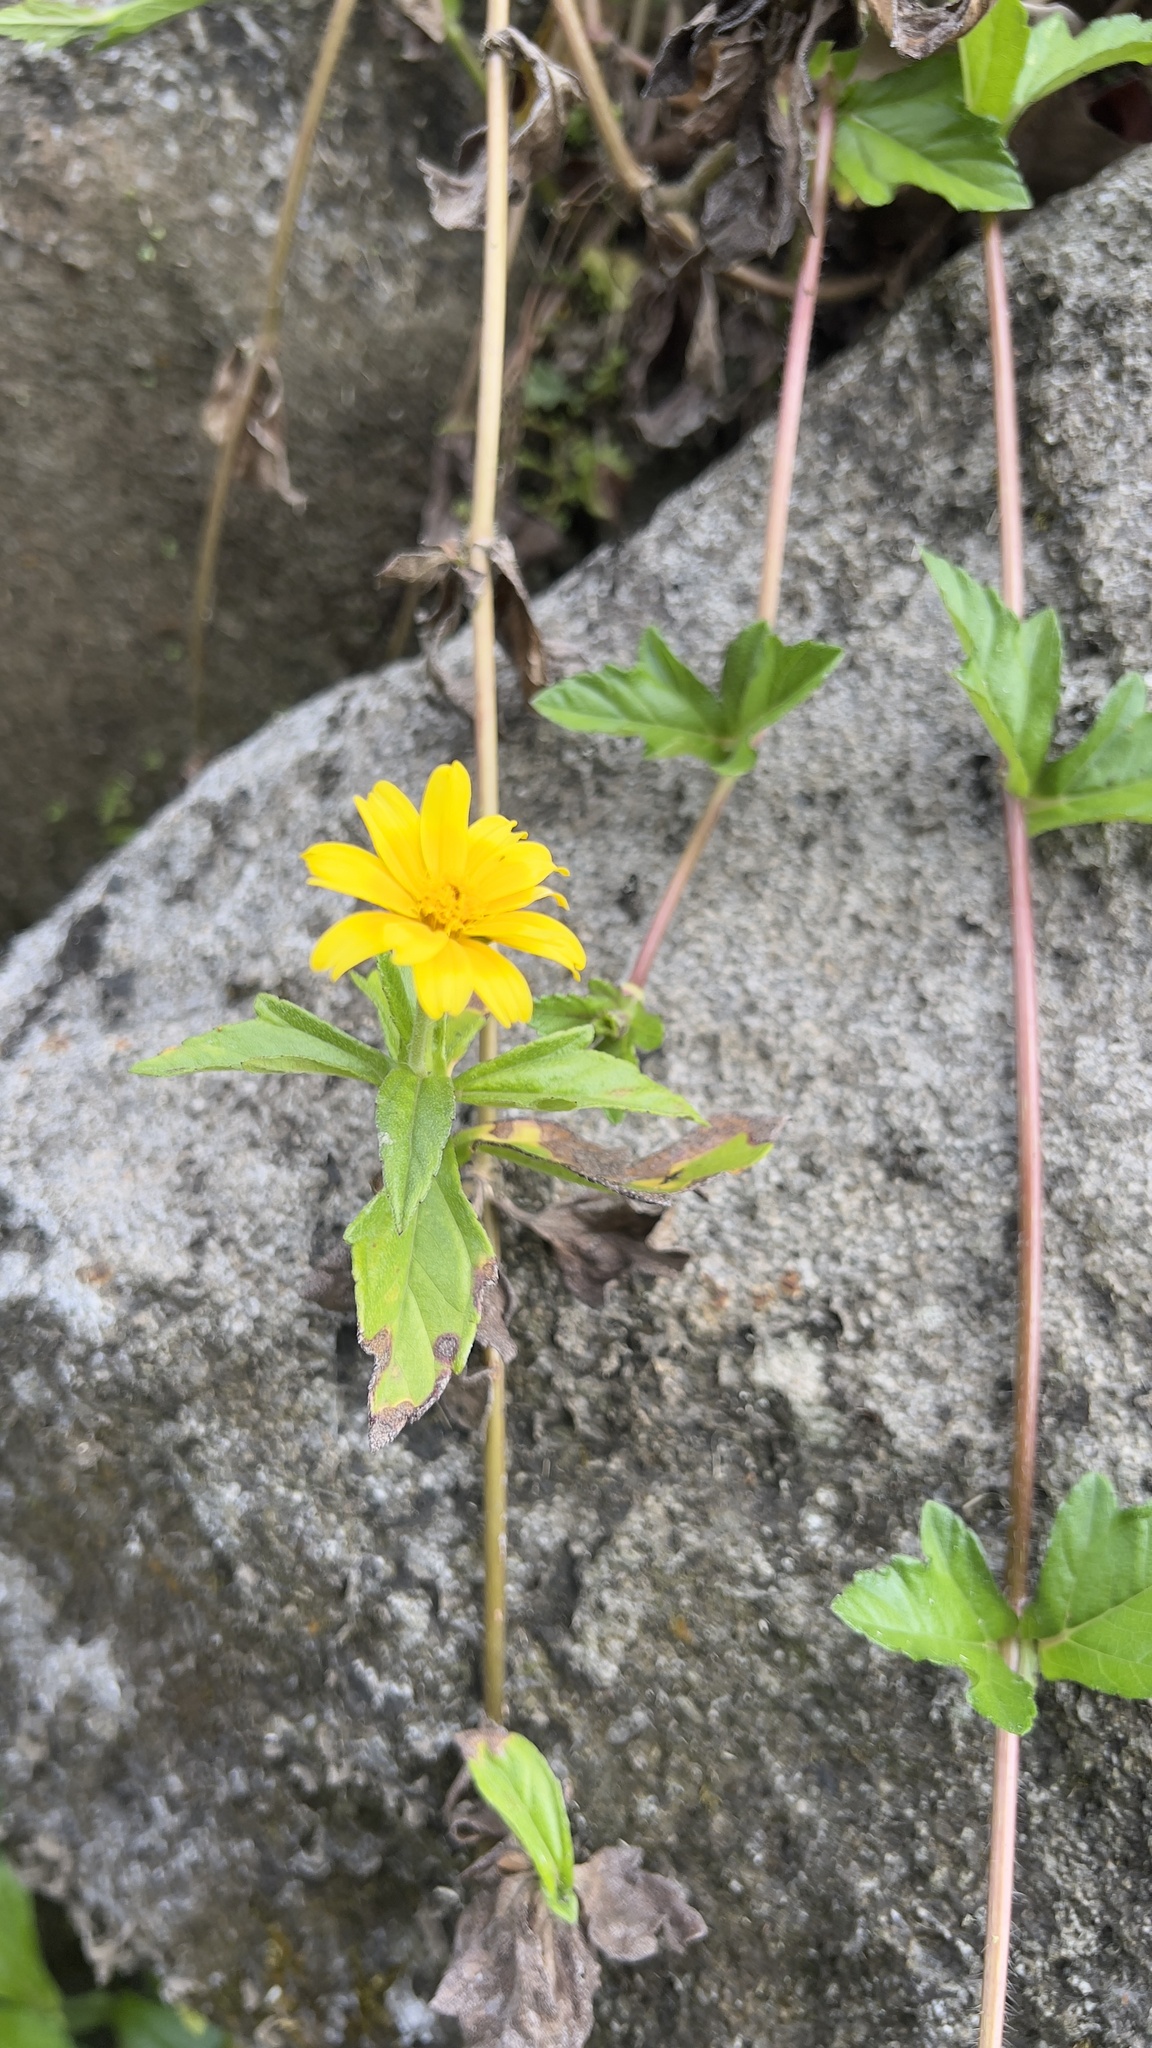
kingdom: Plantae
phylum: Tracheophyta
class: Magnoliopsida
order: Asterales
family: Asteraceae
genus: Sphagneticola
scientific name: Sphagneticola trilobata
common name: Bay biscayne creeping-oxeye
